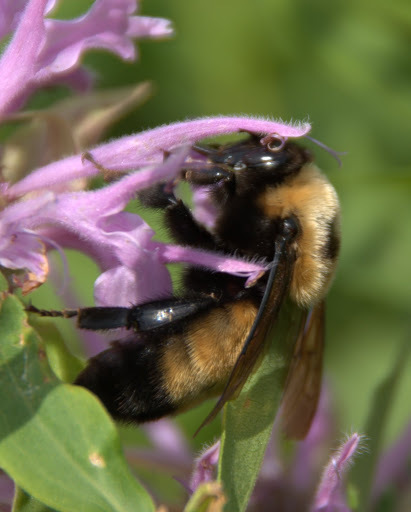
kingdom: Animalia
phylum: Arthropoda
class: Insecta
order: Hymenoptera
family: Apidae
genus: Bombus
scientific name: Bombus nevadensis
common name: Nevada bumble bee
